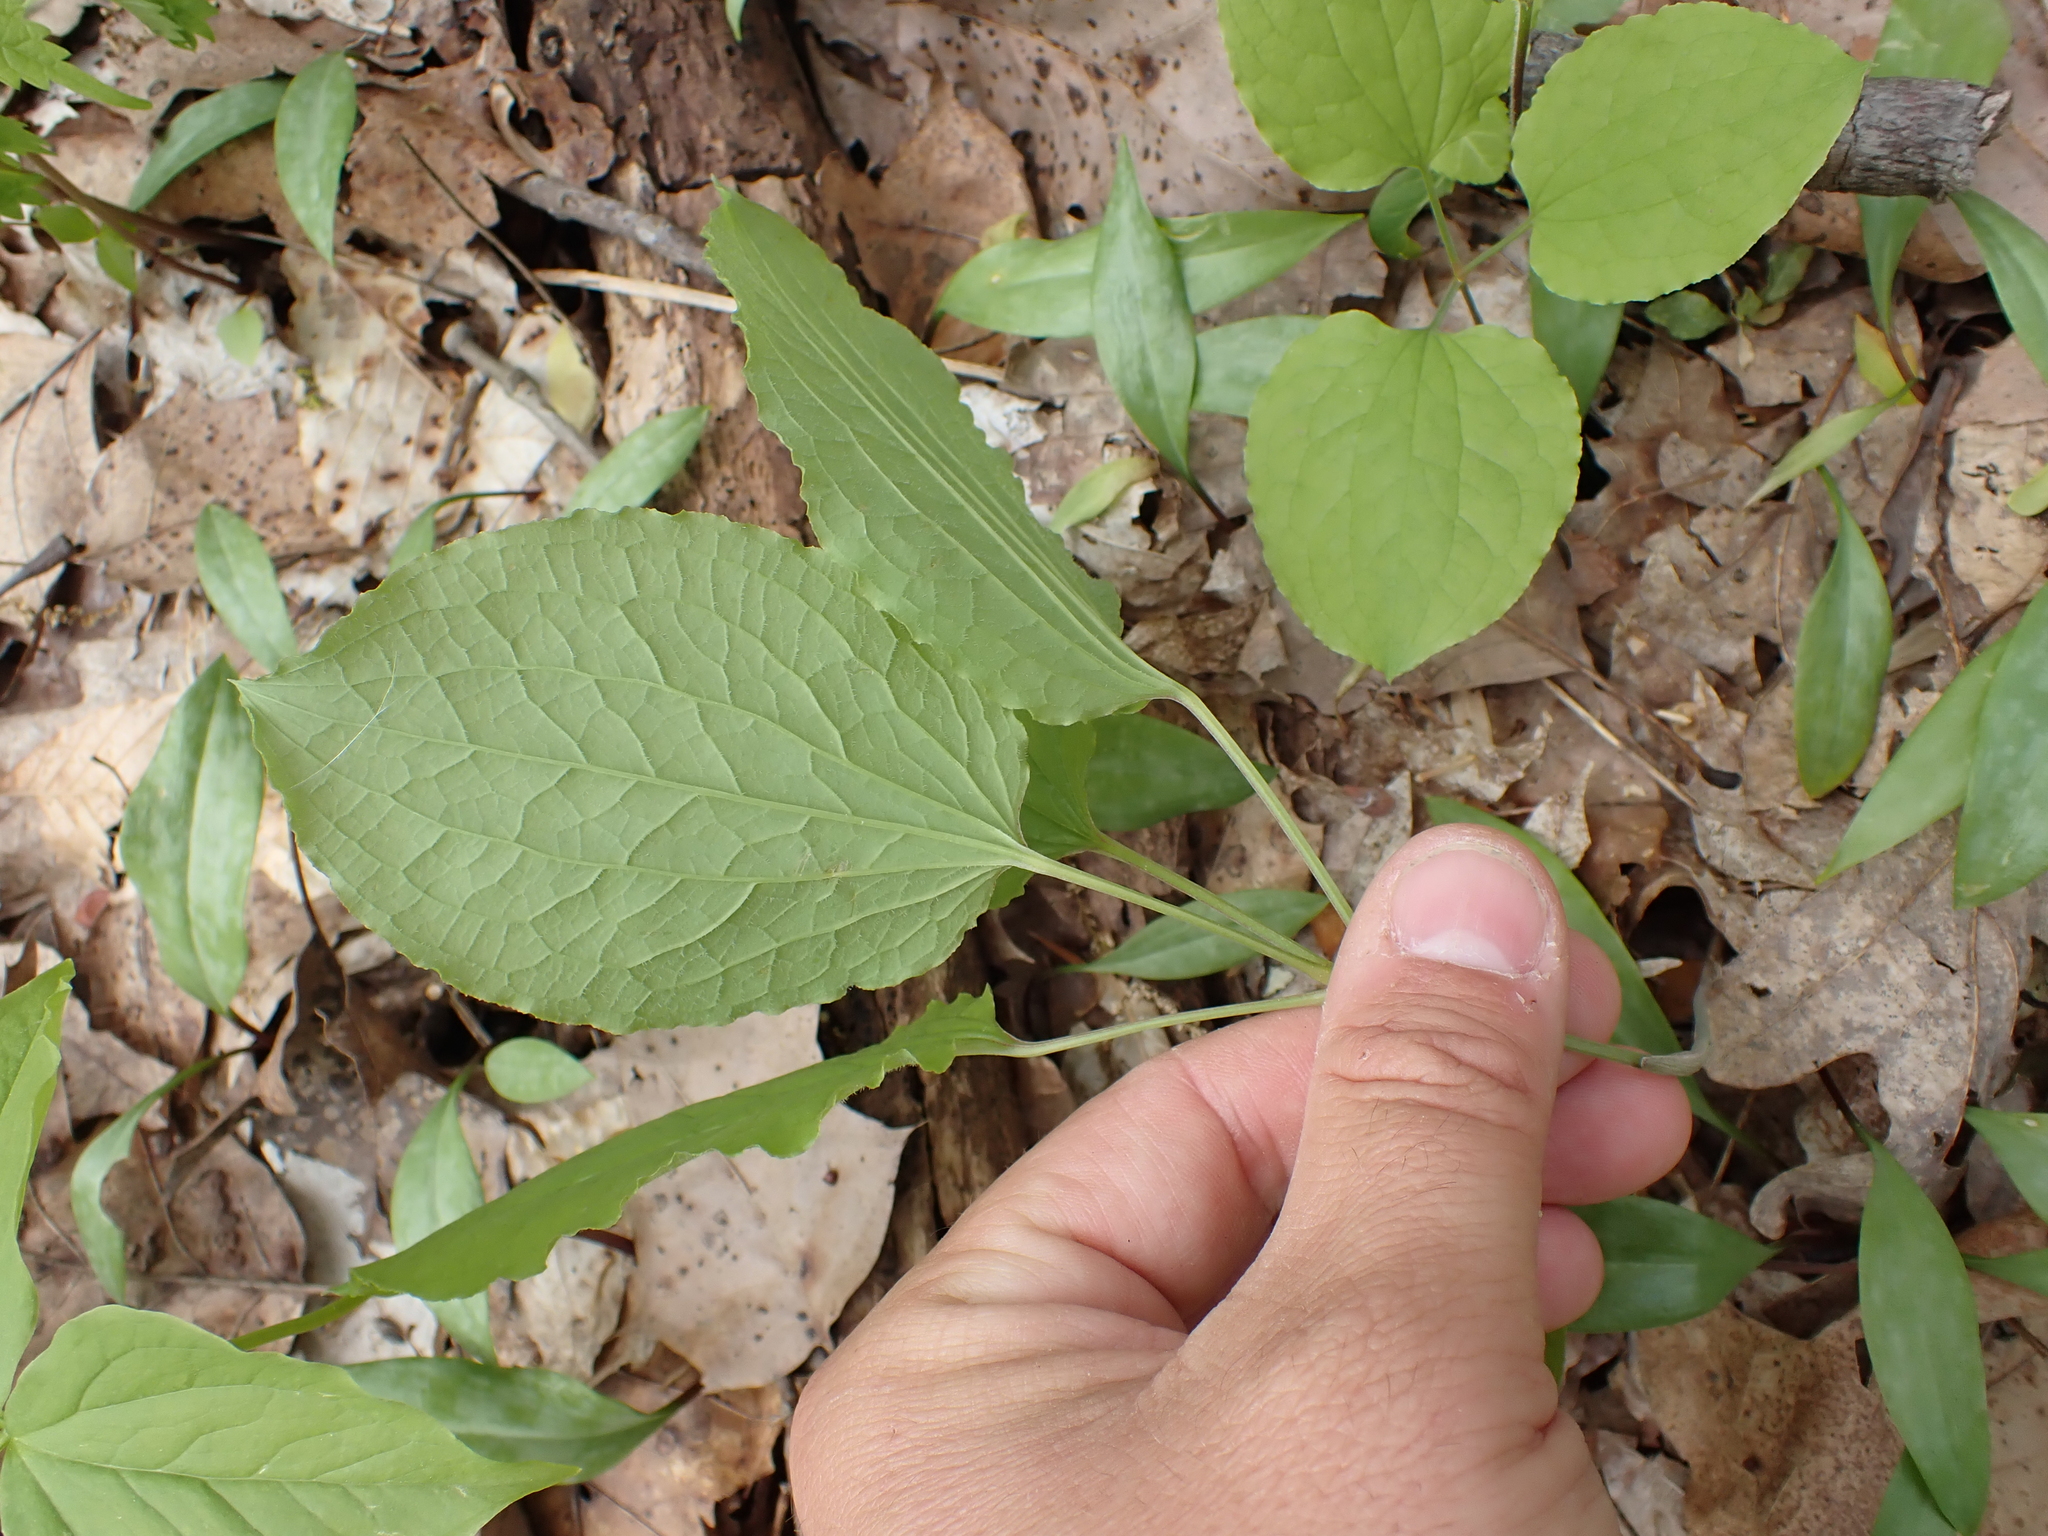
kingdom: Plantae
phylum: Tracheophyta
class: Liliopsida
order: Liliales
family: Smilacaceae
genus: Smilax
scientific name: Smilax ecirrhata
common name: Upright carrionflower
